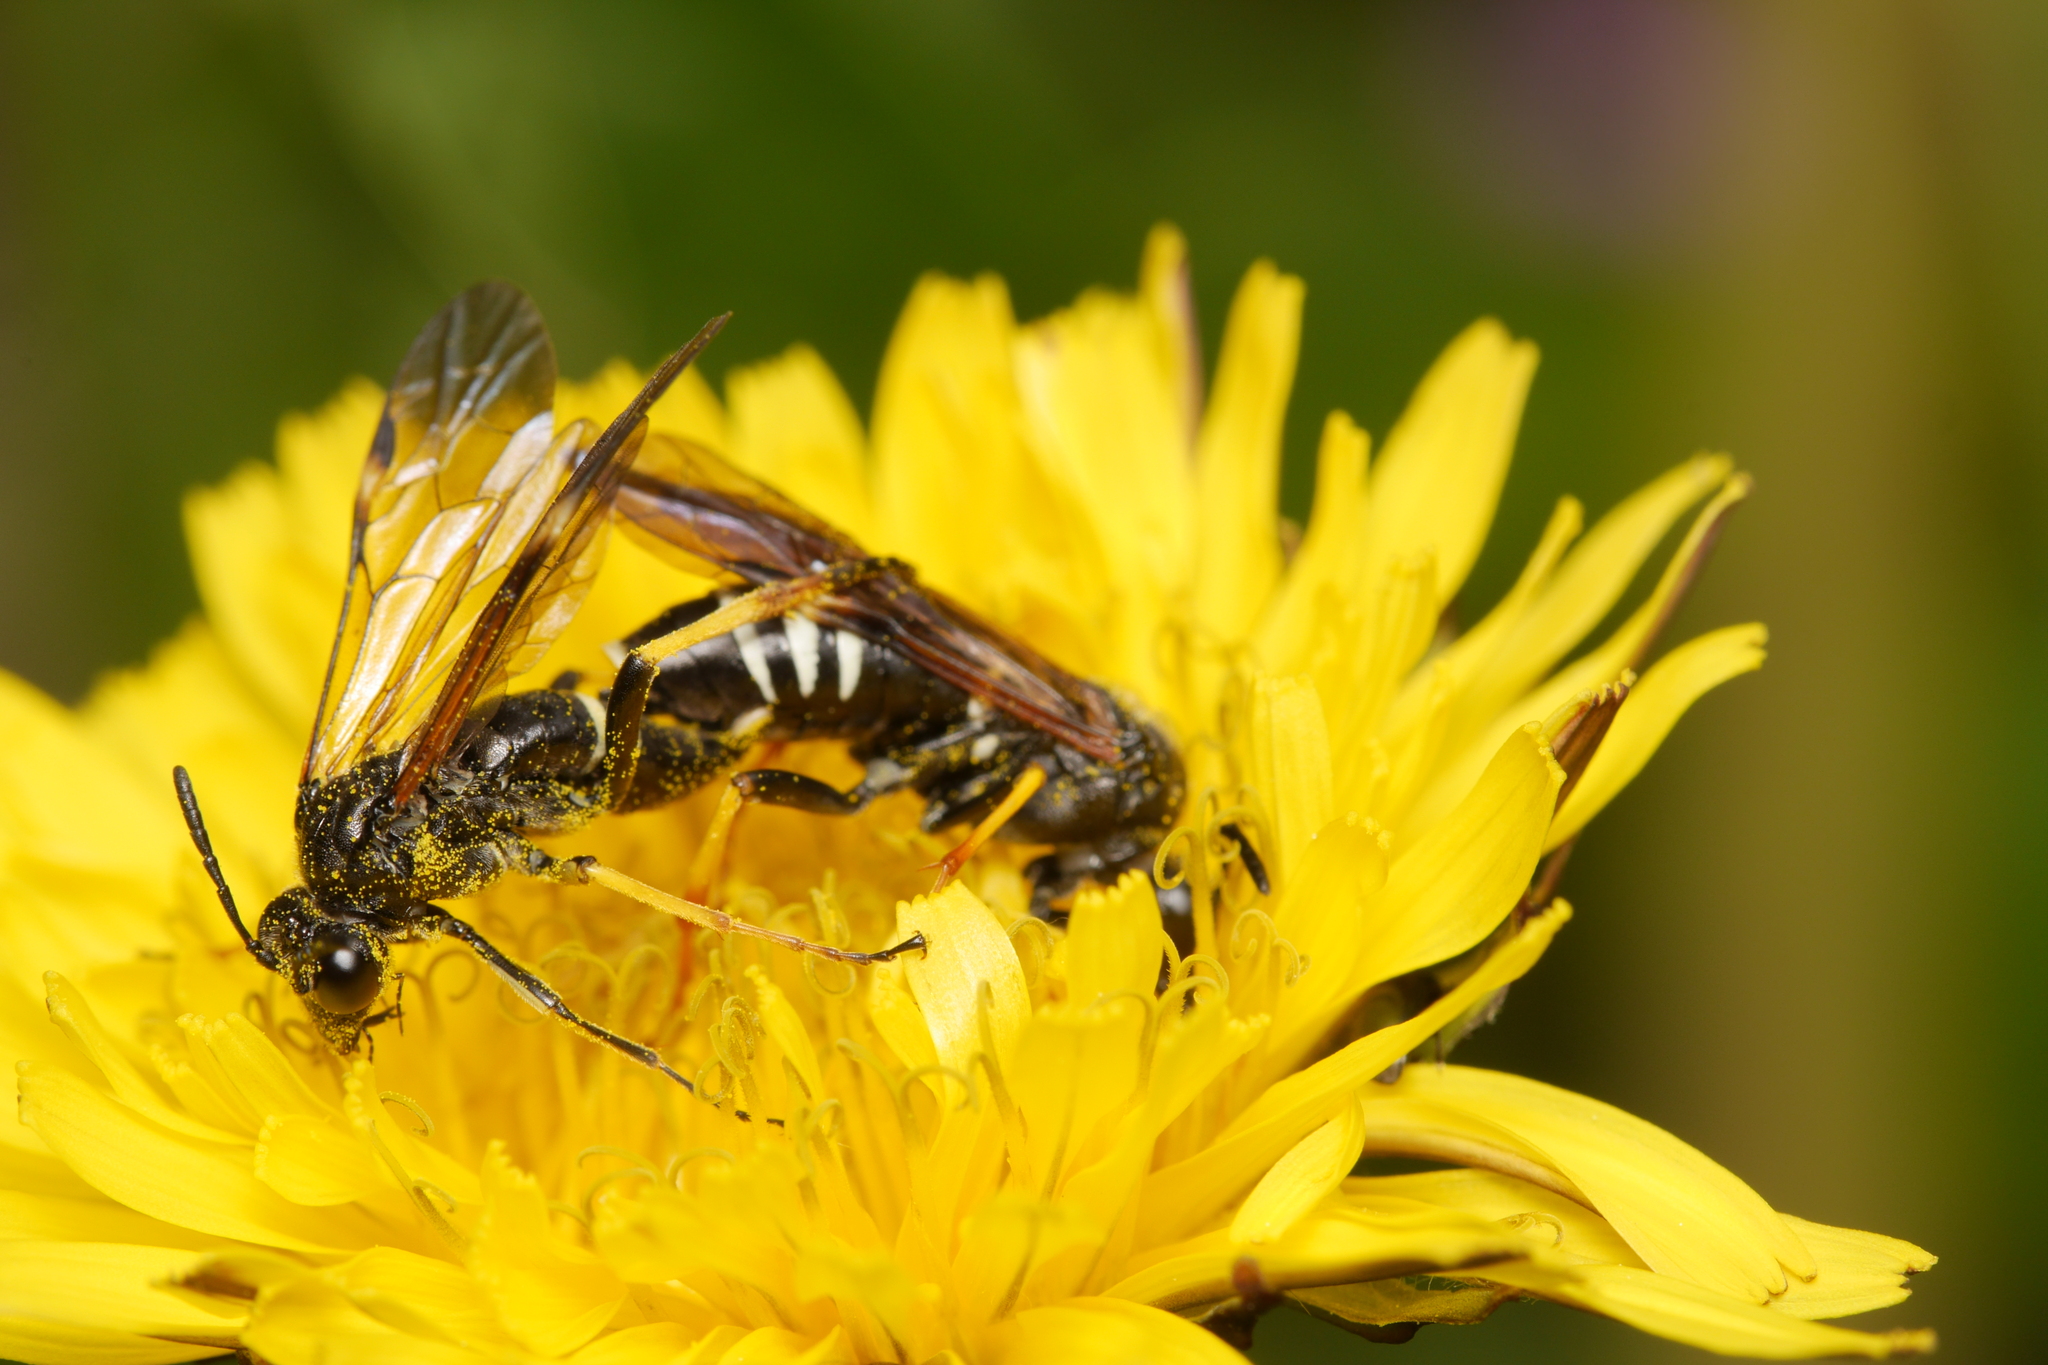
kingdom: Animalia
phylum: Arthropoda
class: Insecta
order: Hymenoptera
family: Tenthredinidae
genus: Tenthredo
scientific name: Tenthredo koehleri
